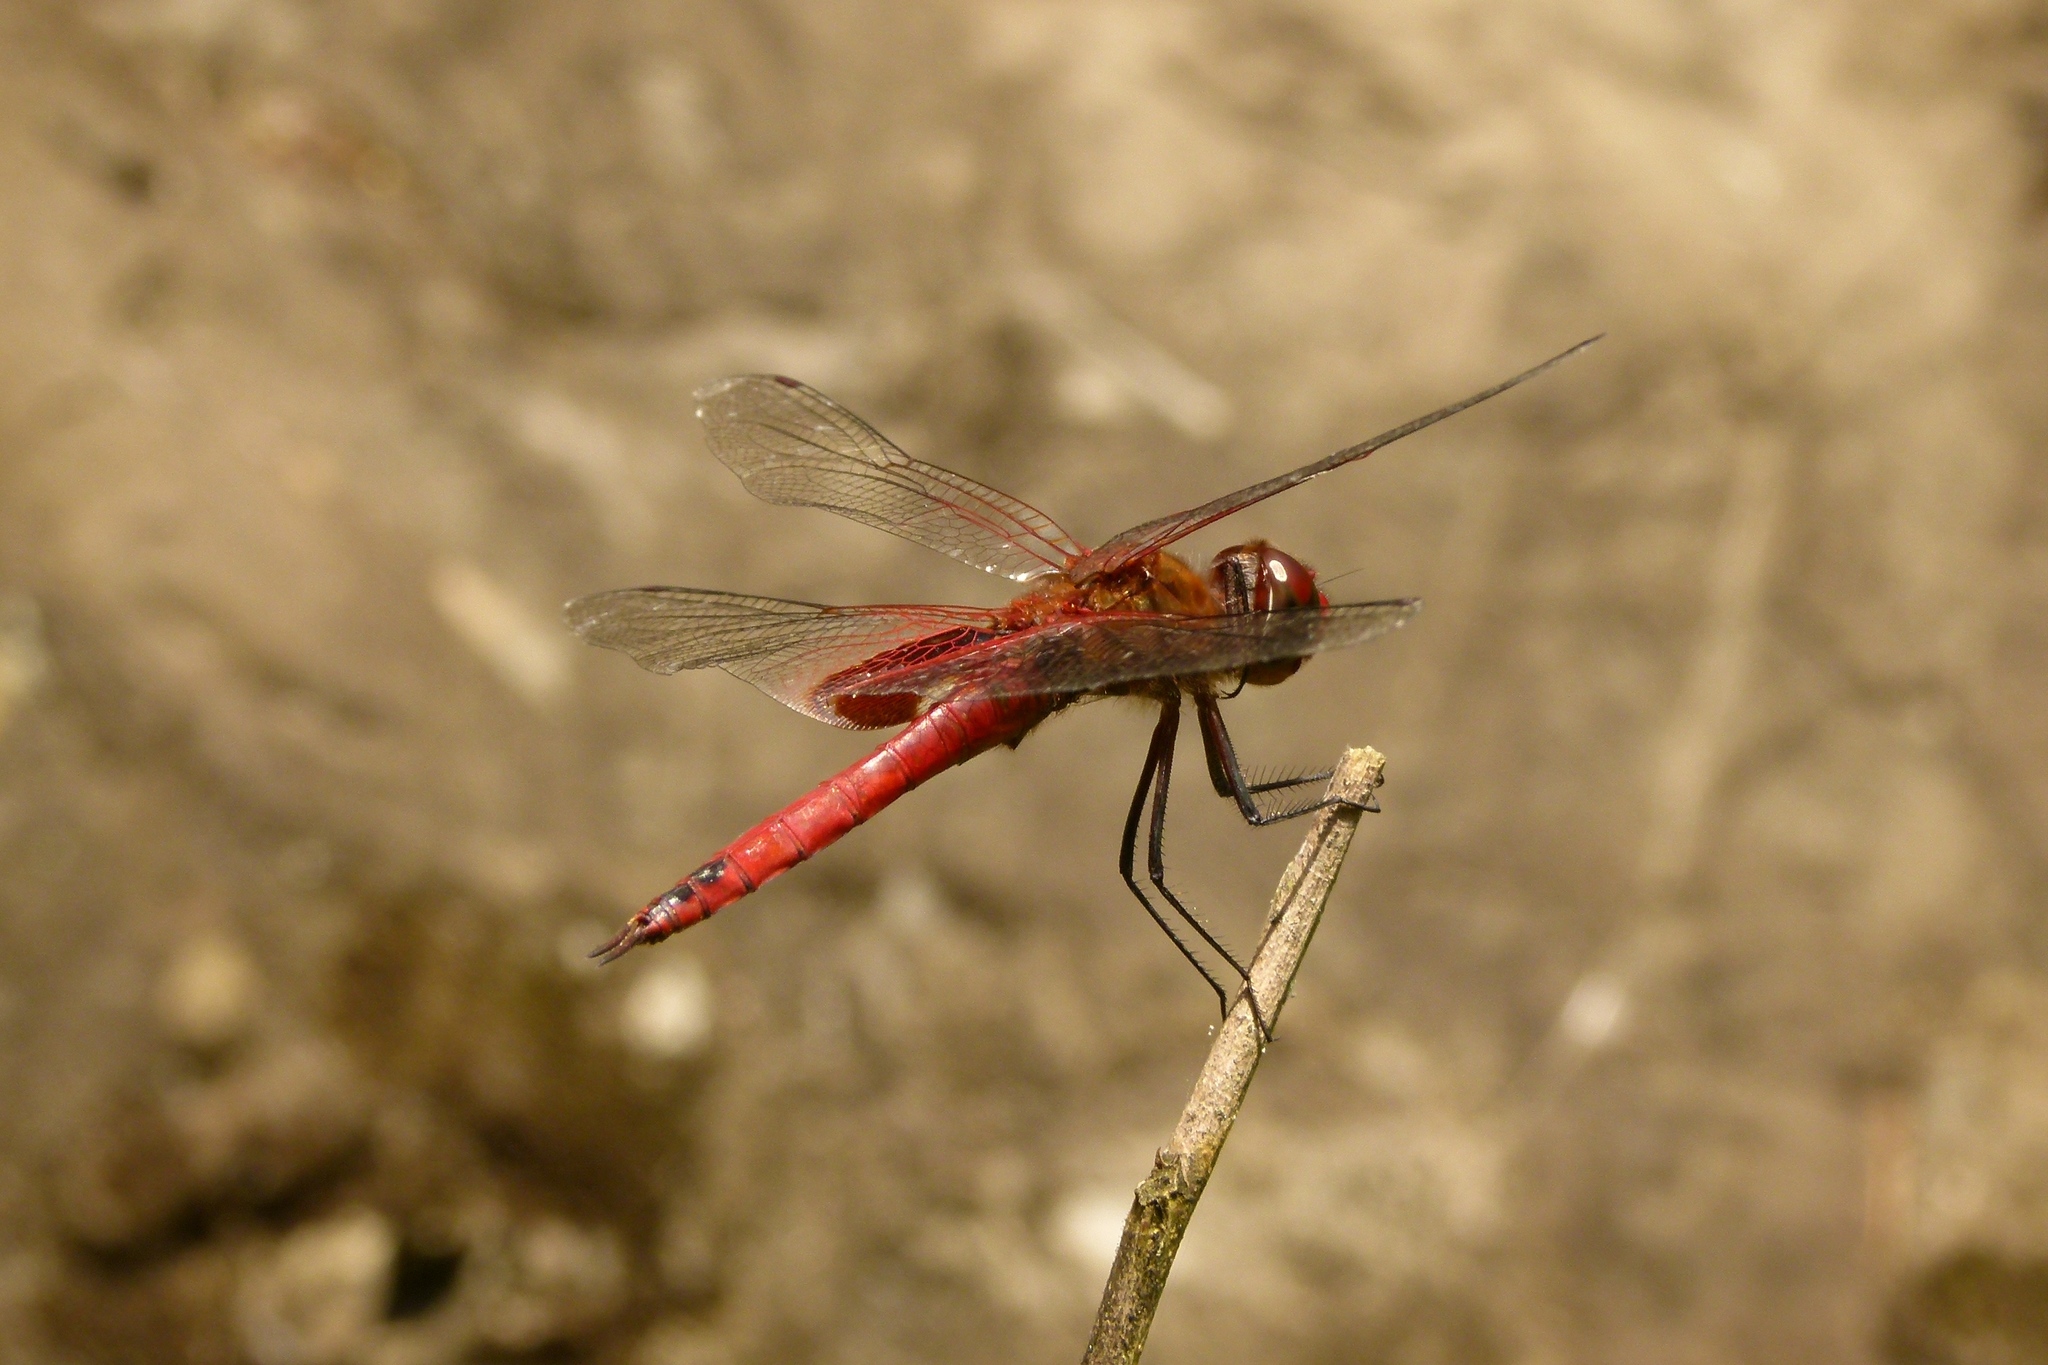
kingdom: Animalia
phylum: Arthropoda
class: Insecta
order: Odonata
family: Libellulidae
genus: Tramea
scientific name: Tramea onusta
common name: Red saddlebags
